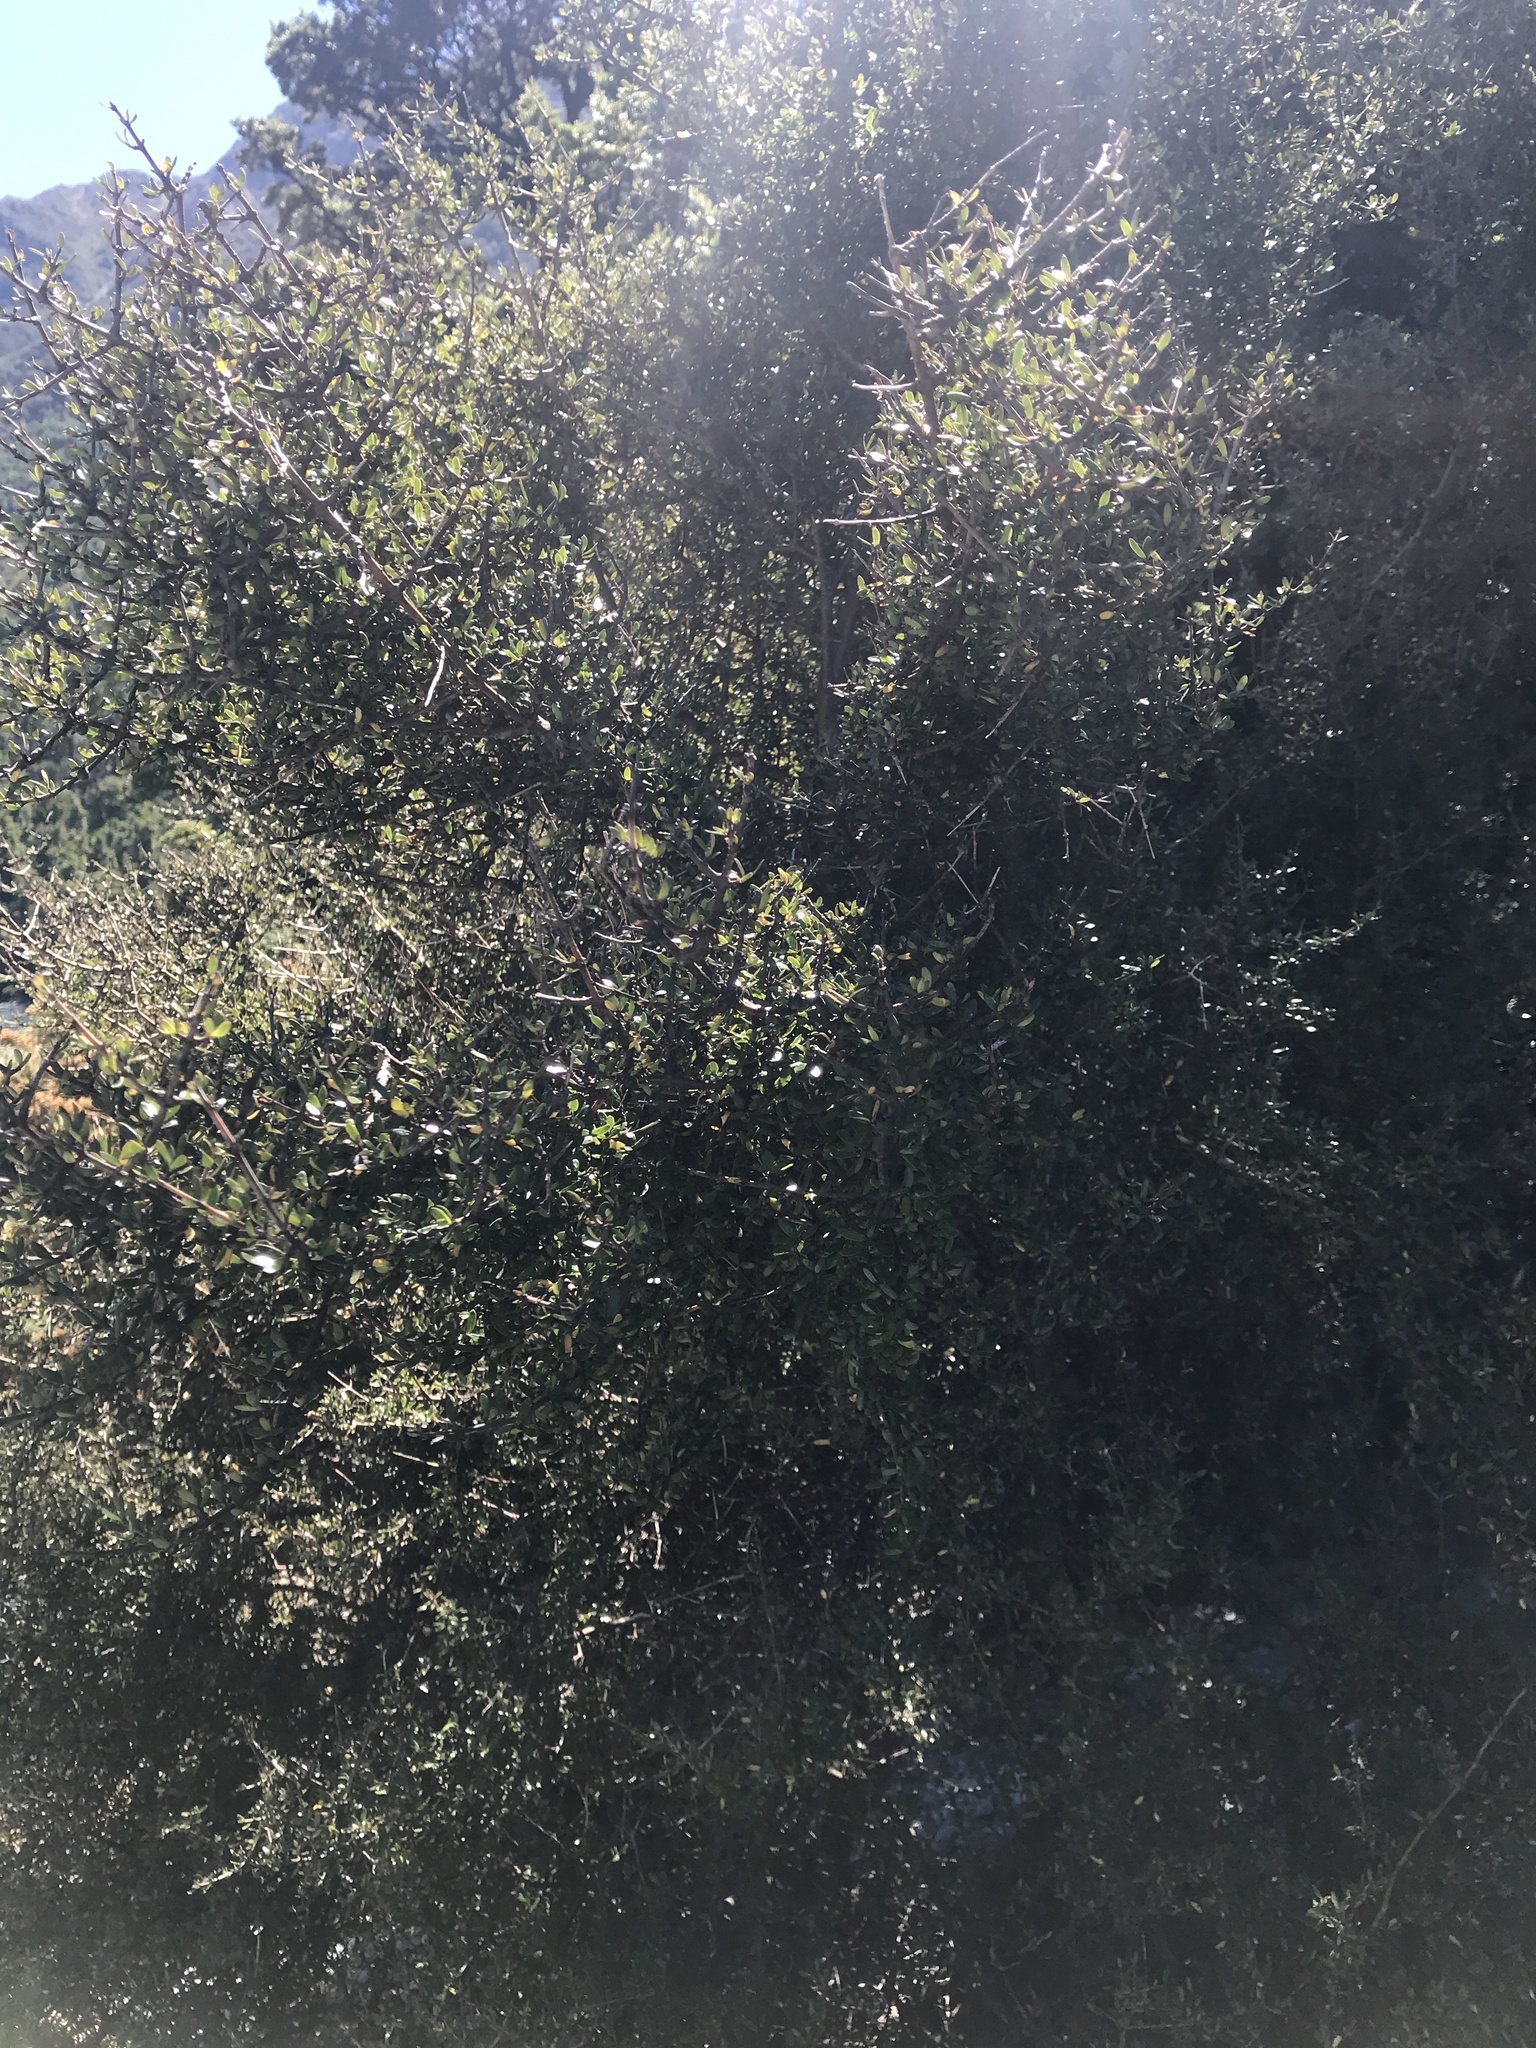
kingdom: Plantae
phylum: Tracheophyta
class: Magnoliopsida
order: Gentianales
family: Rubiaceae
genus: Coprosma
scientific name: Coprosma propinqua
